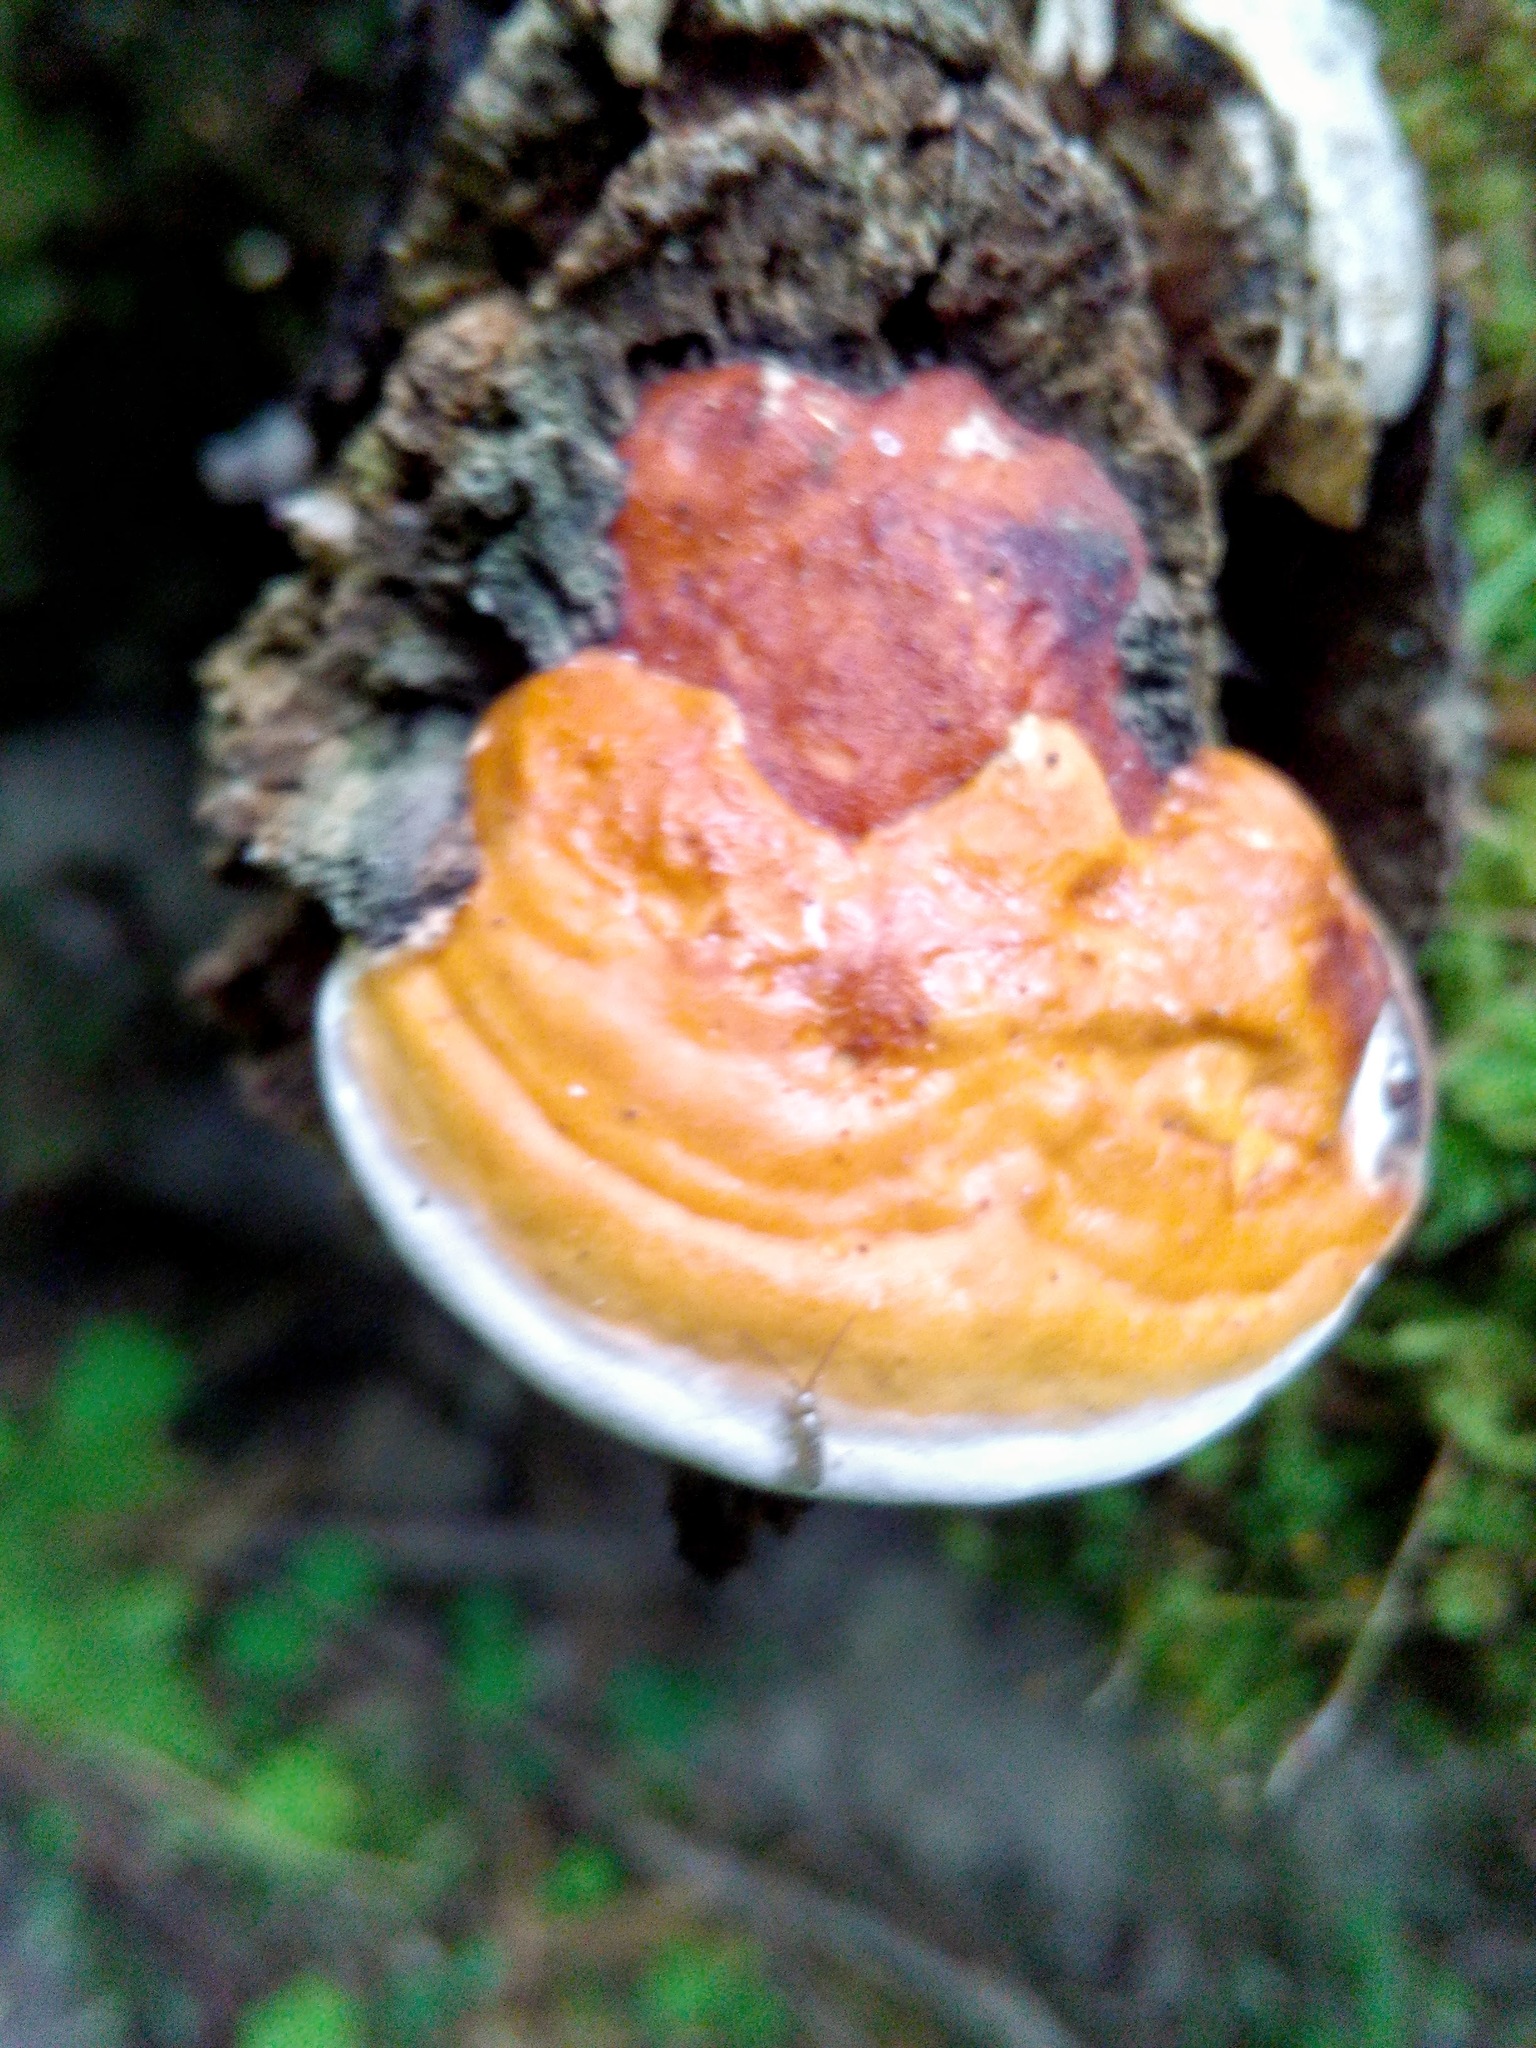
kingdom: Fungi
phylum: Basidiomycota
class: Agaricomycetes
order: Polyporales
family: Fomitopsidaceae
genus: Fomitopsis
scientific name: Fomitopsis pinicola
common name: Red-belted bracket
